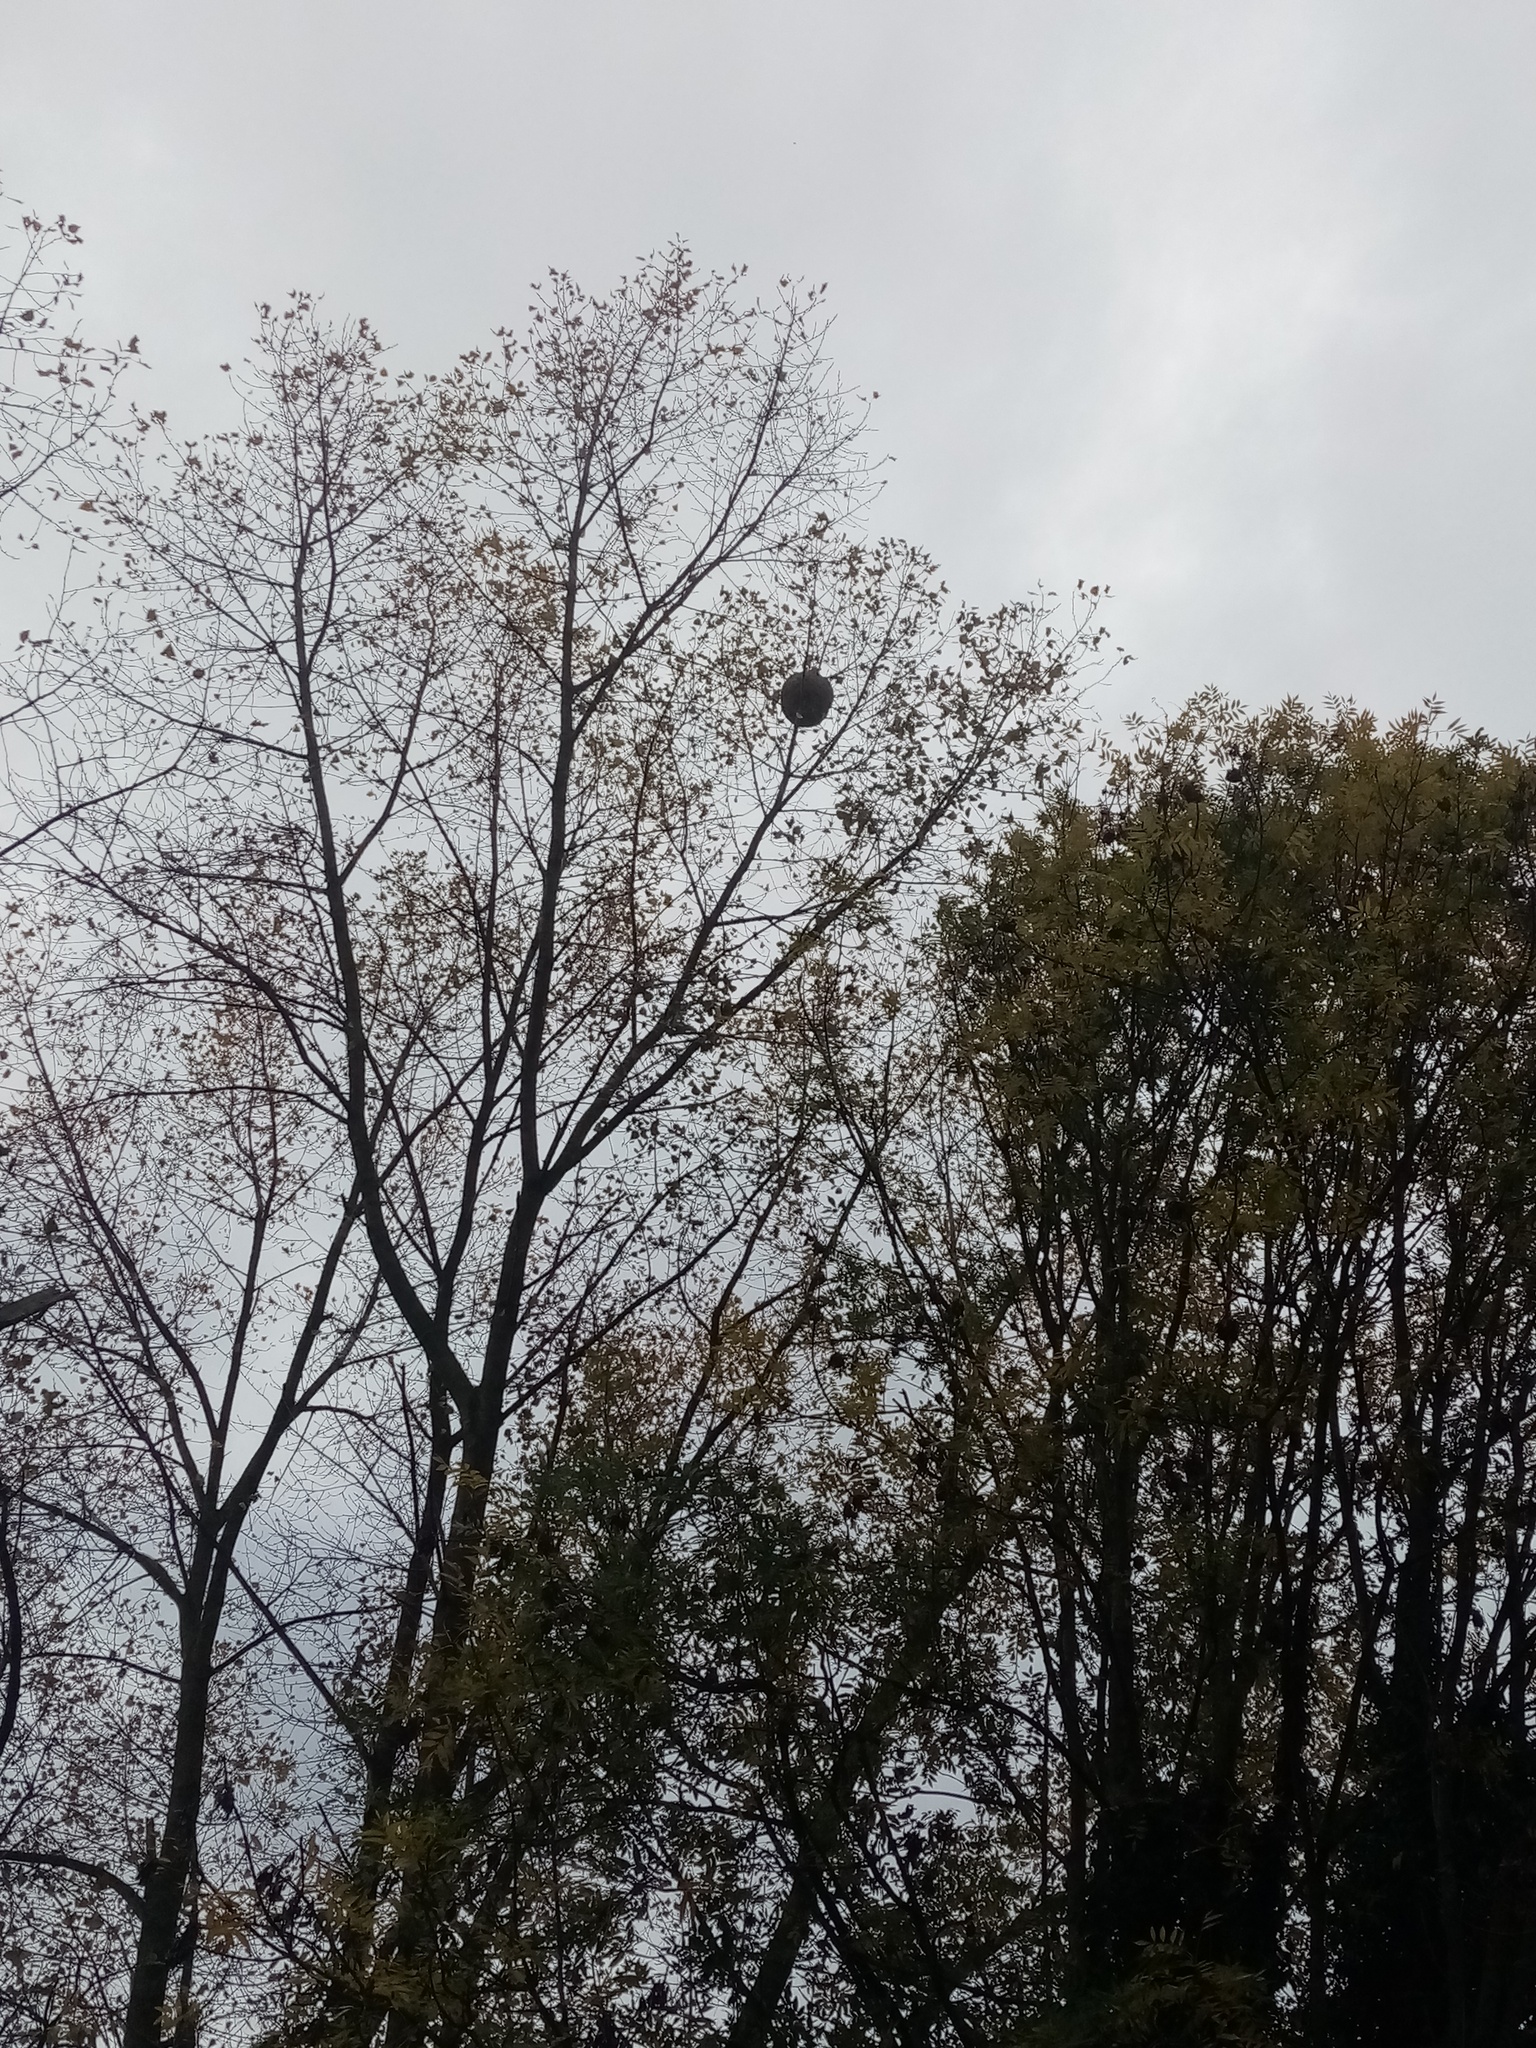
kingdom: Animalia
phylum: Arthropoda
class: Insecta
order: Hymenoptera
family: Vespidae
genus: Vespa
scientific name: Vespa velutina
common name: Asian hornet
